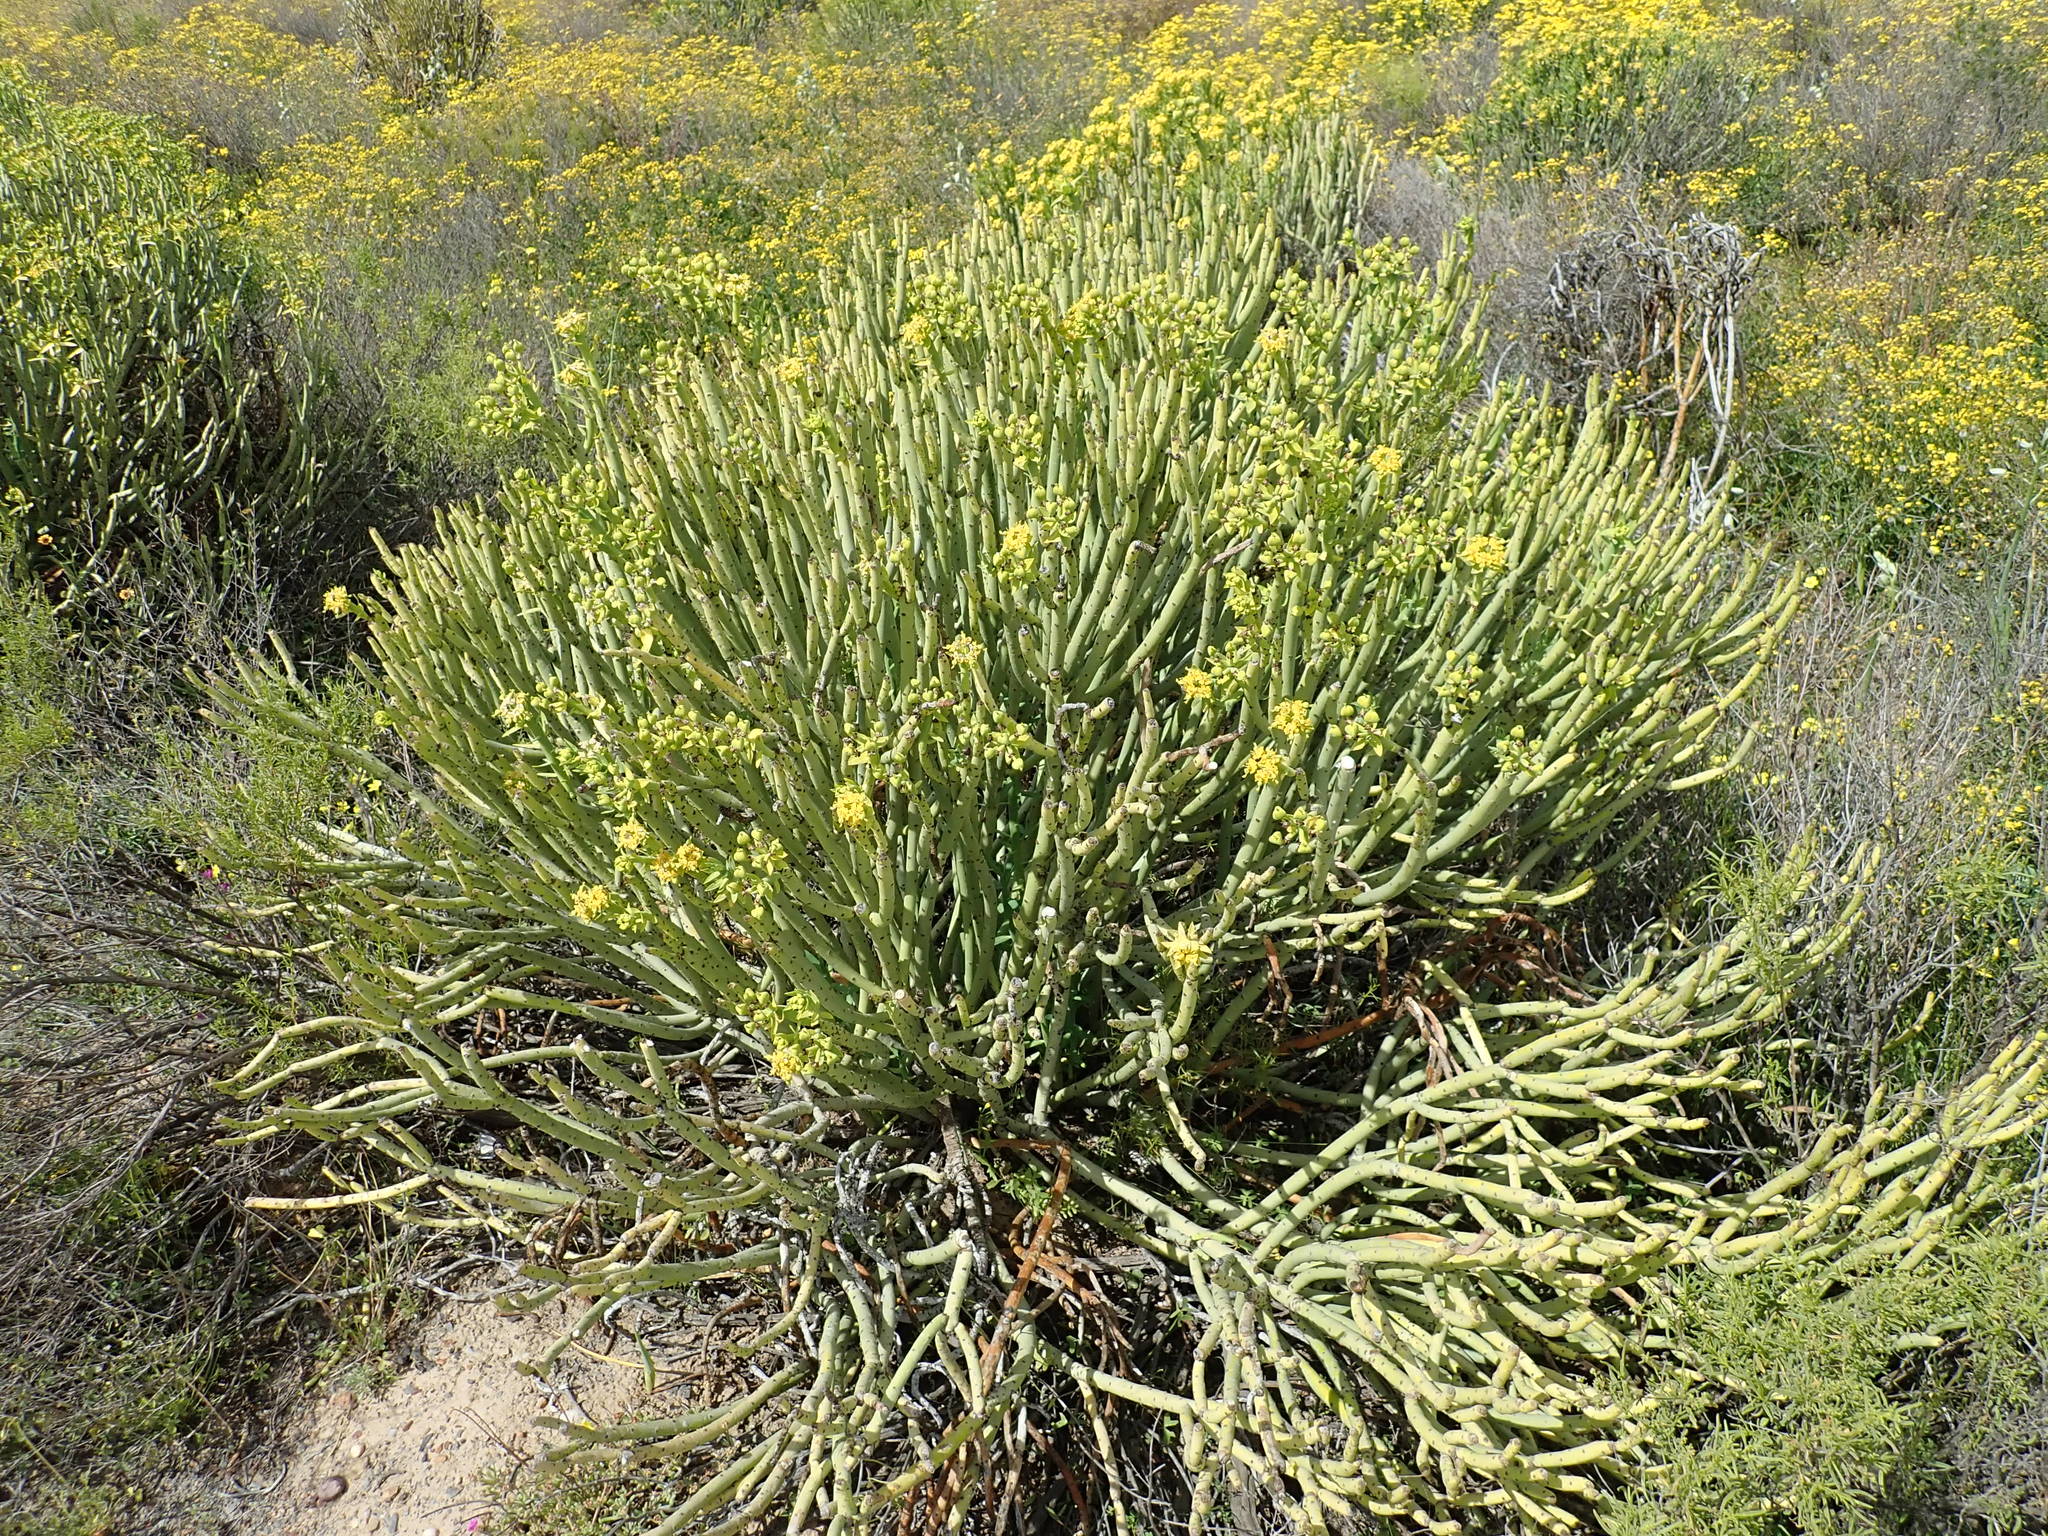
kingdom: Plantae
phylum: Tracheophyta
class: Magnoliopsida
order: Malpighiales
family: Euphorbiaceae
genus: Euphorbia
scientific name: Euphorbia mauritanica
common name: Jackal's-food
